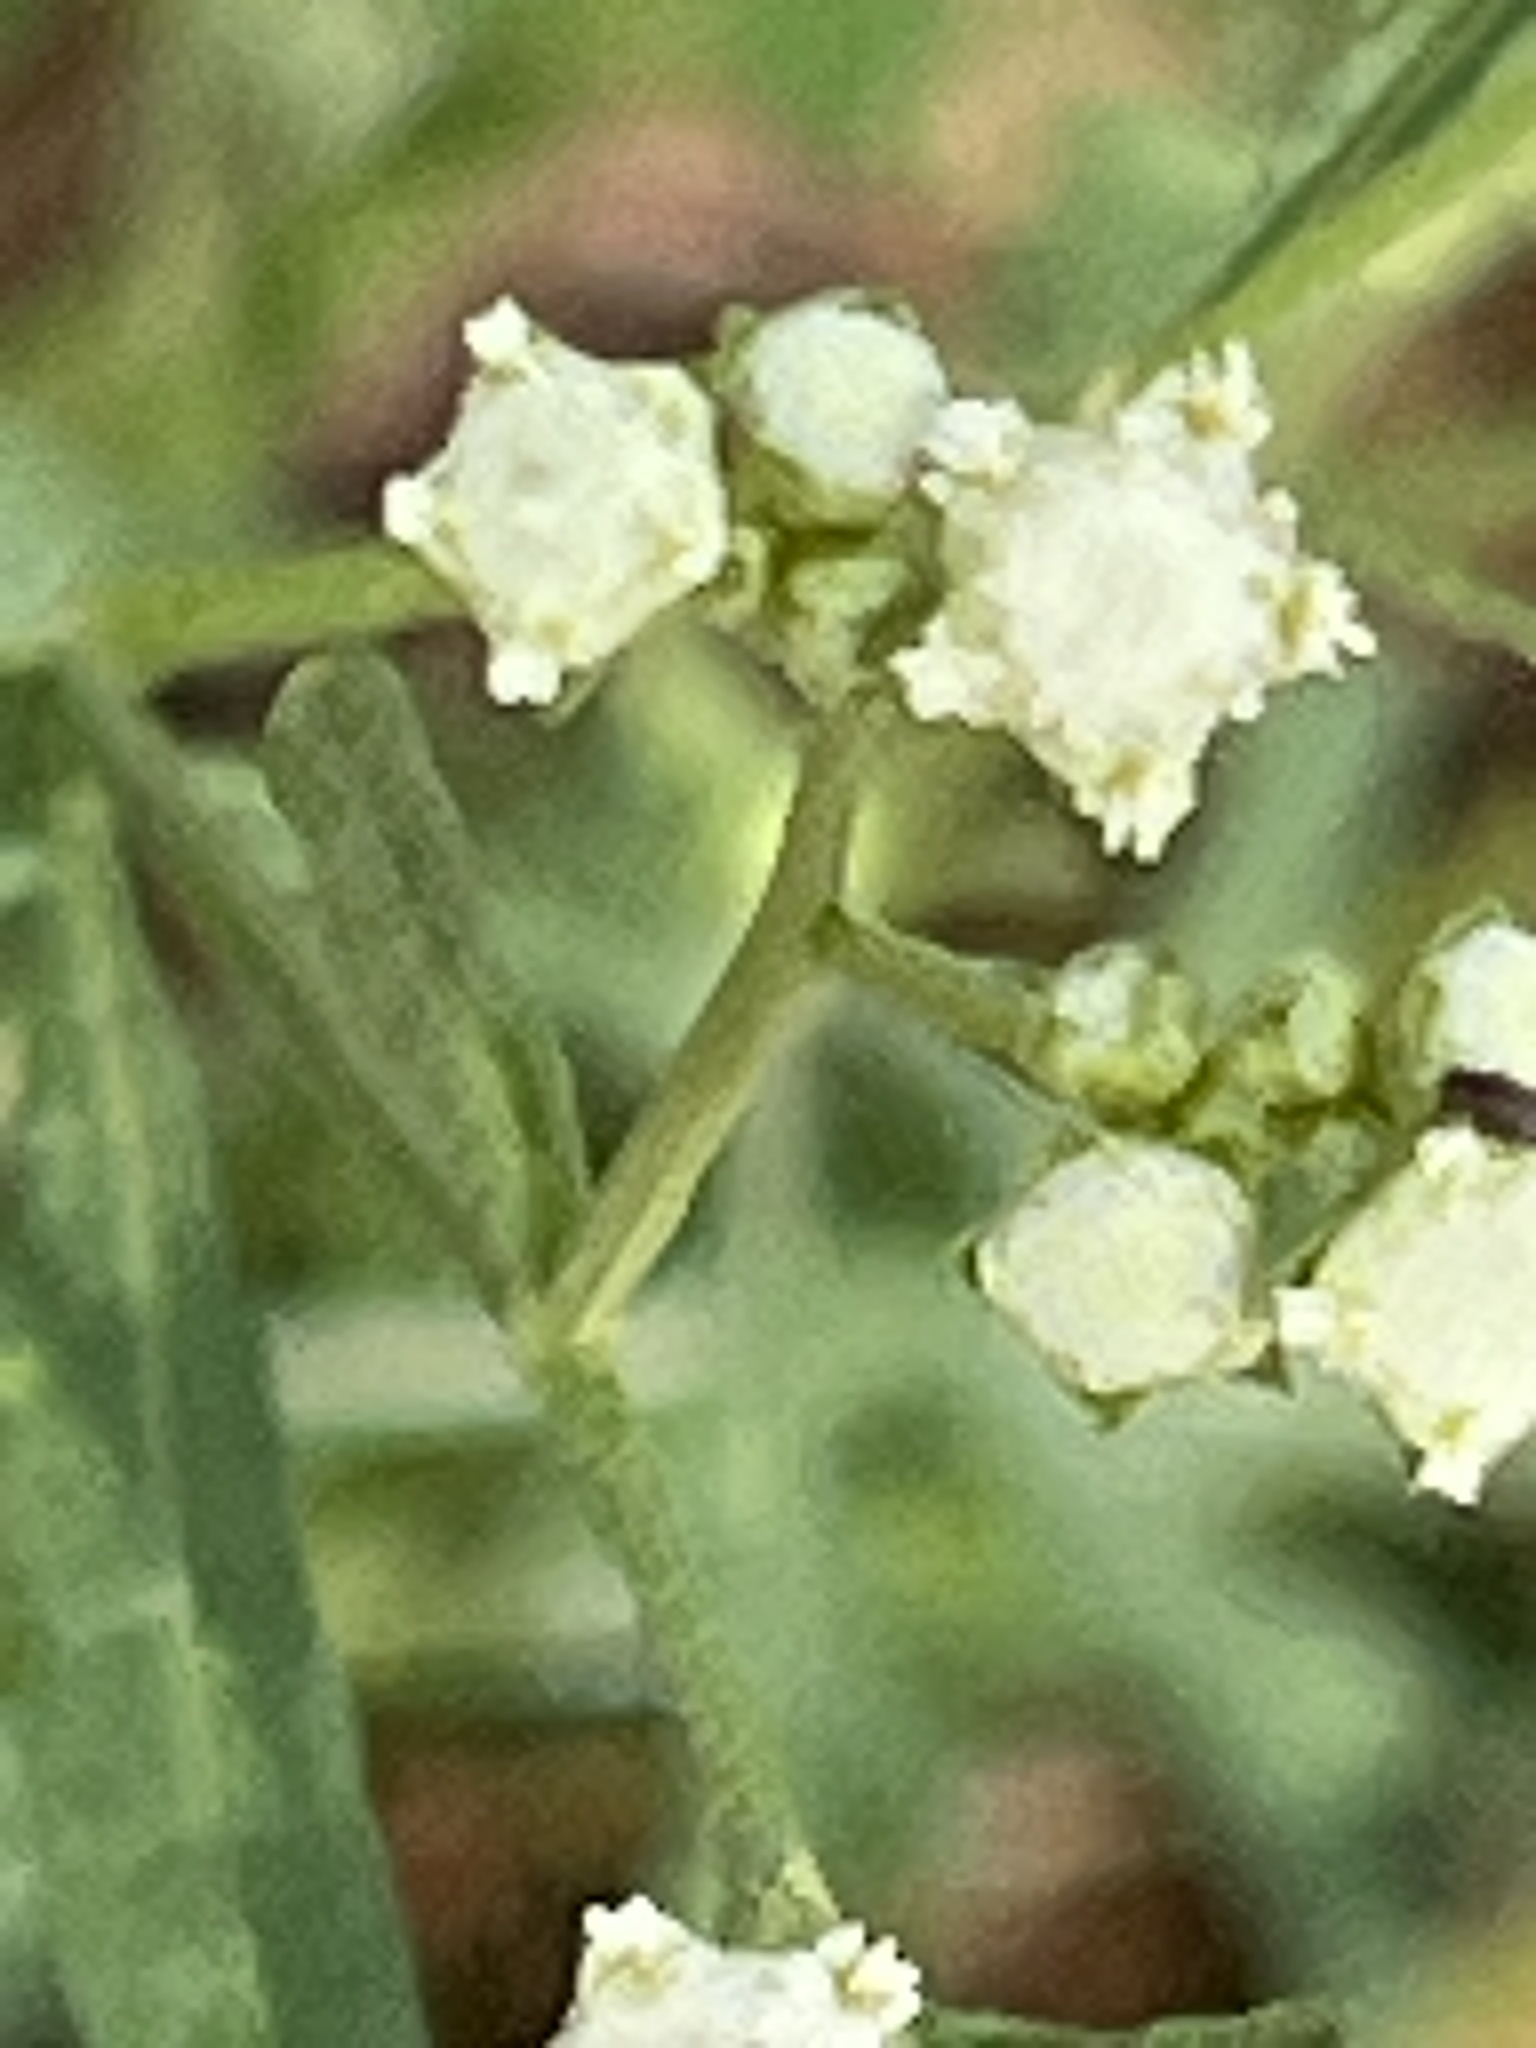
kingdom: Plantae
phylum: Tracheophyta
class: Magnoliopsida
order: Asterales
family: Asteraceae
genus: Parthenium
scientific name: Parthenium hysterophorus
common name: Santa maria feverfew
